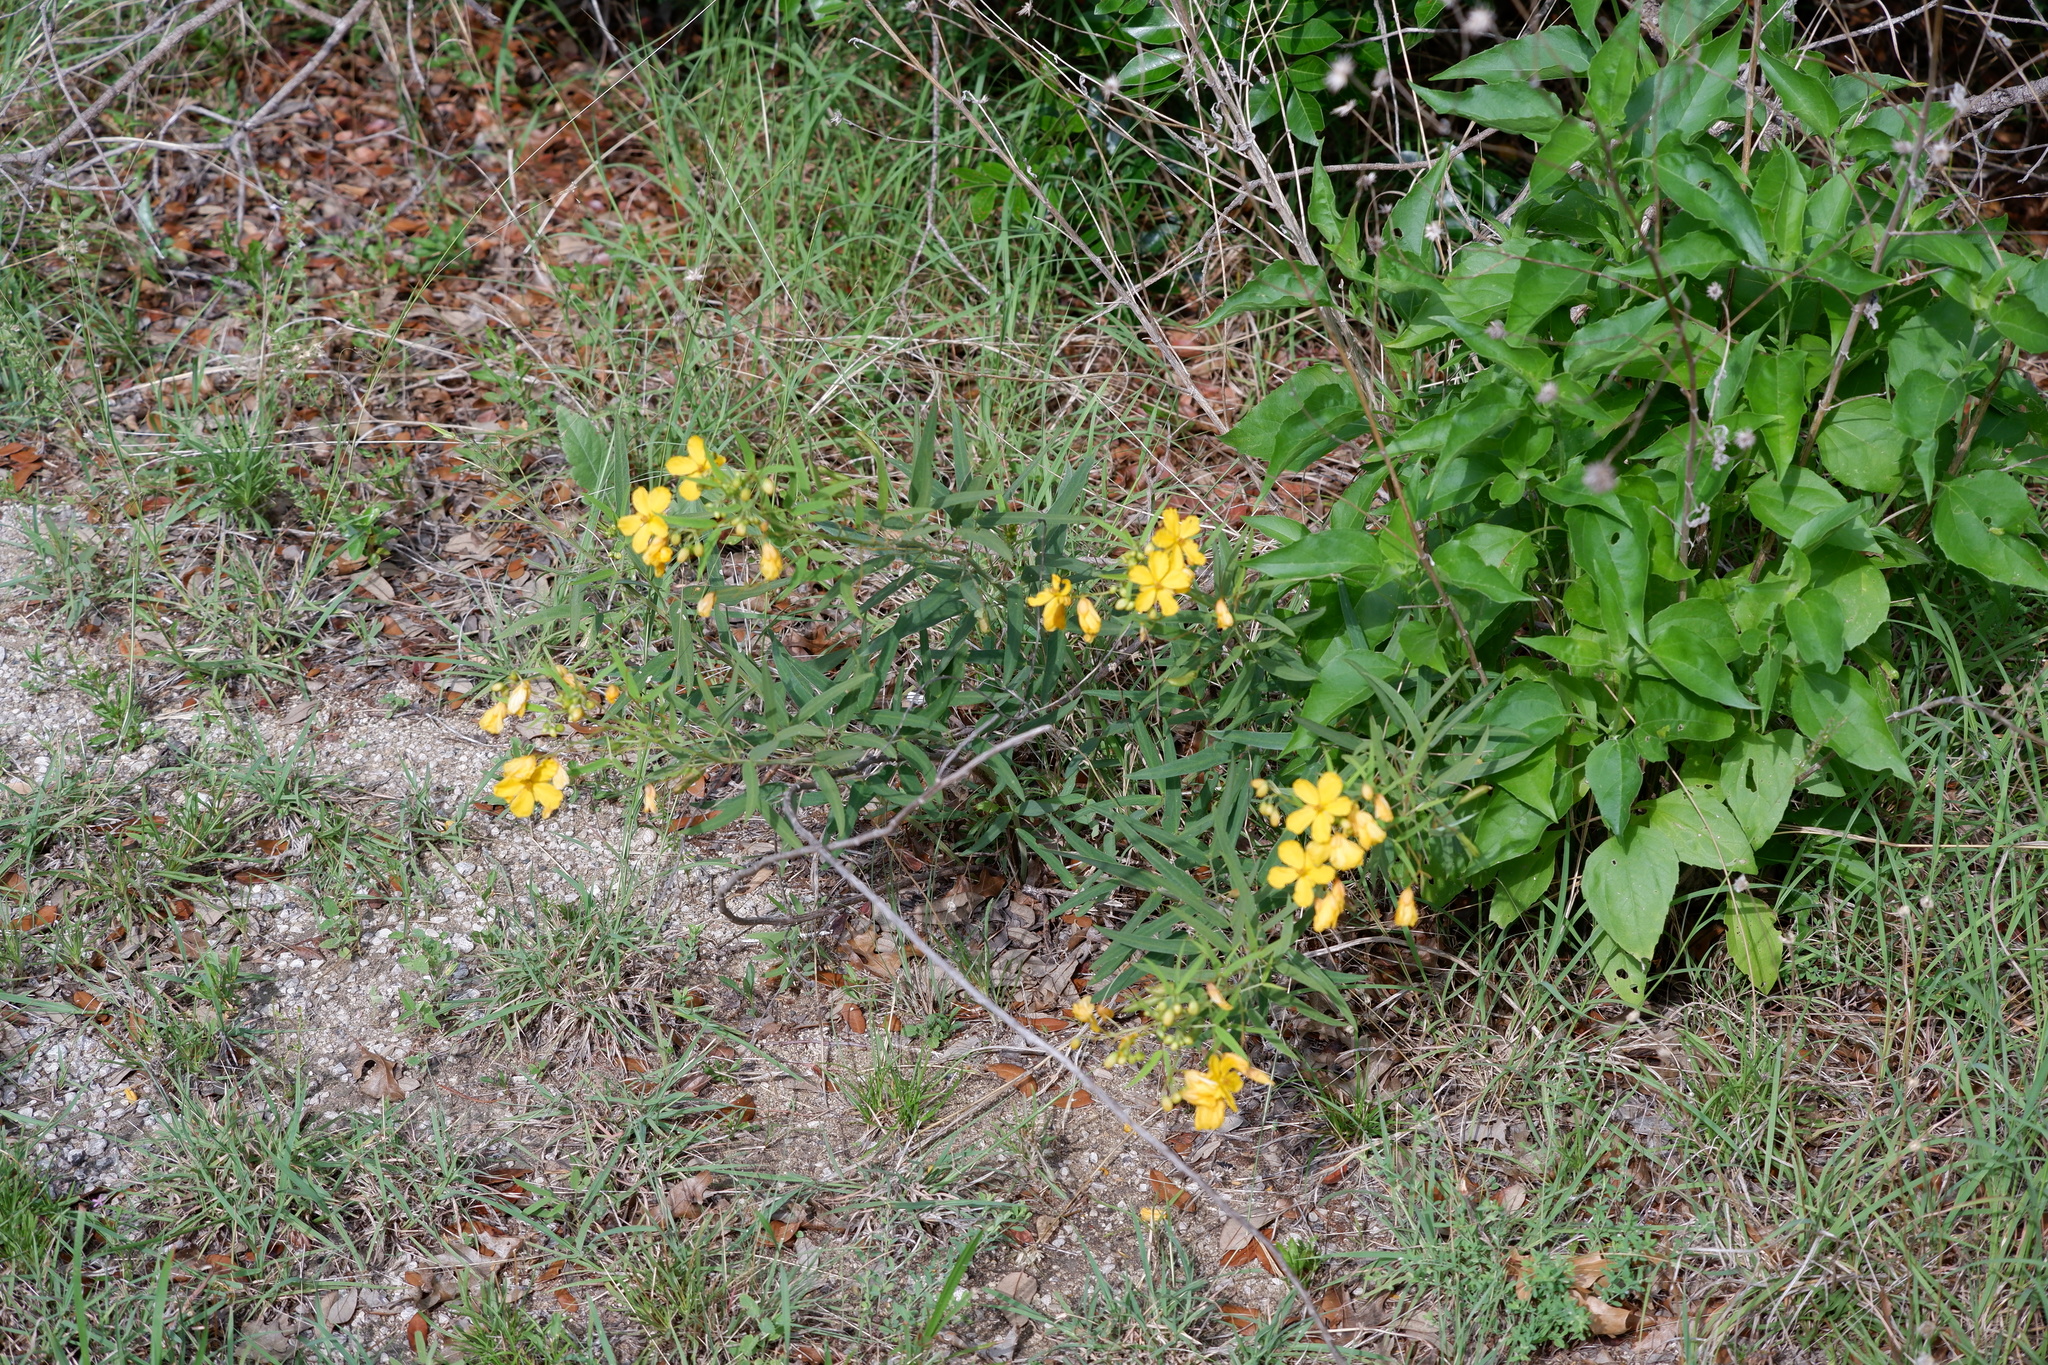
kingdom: Plantae
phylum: Tracheophyta
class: Magnoliopsida
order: Fabales
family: Fabaceae
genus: Senna
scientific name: Senna roemeriana
